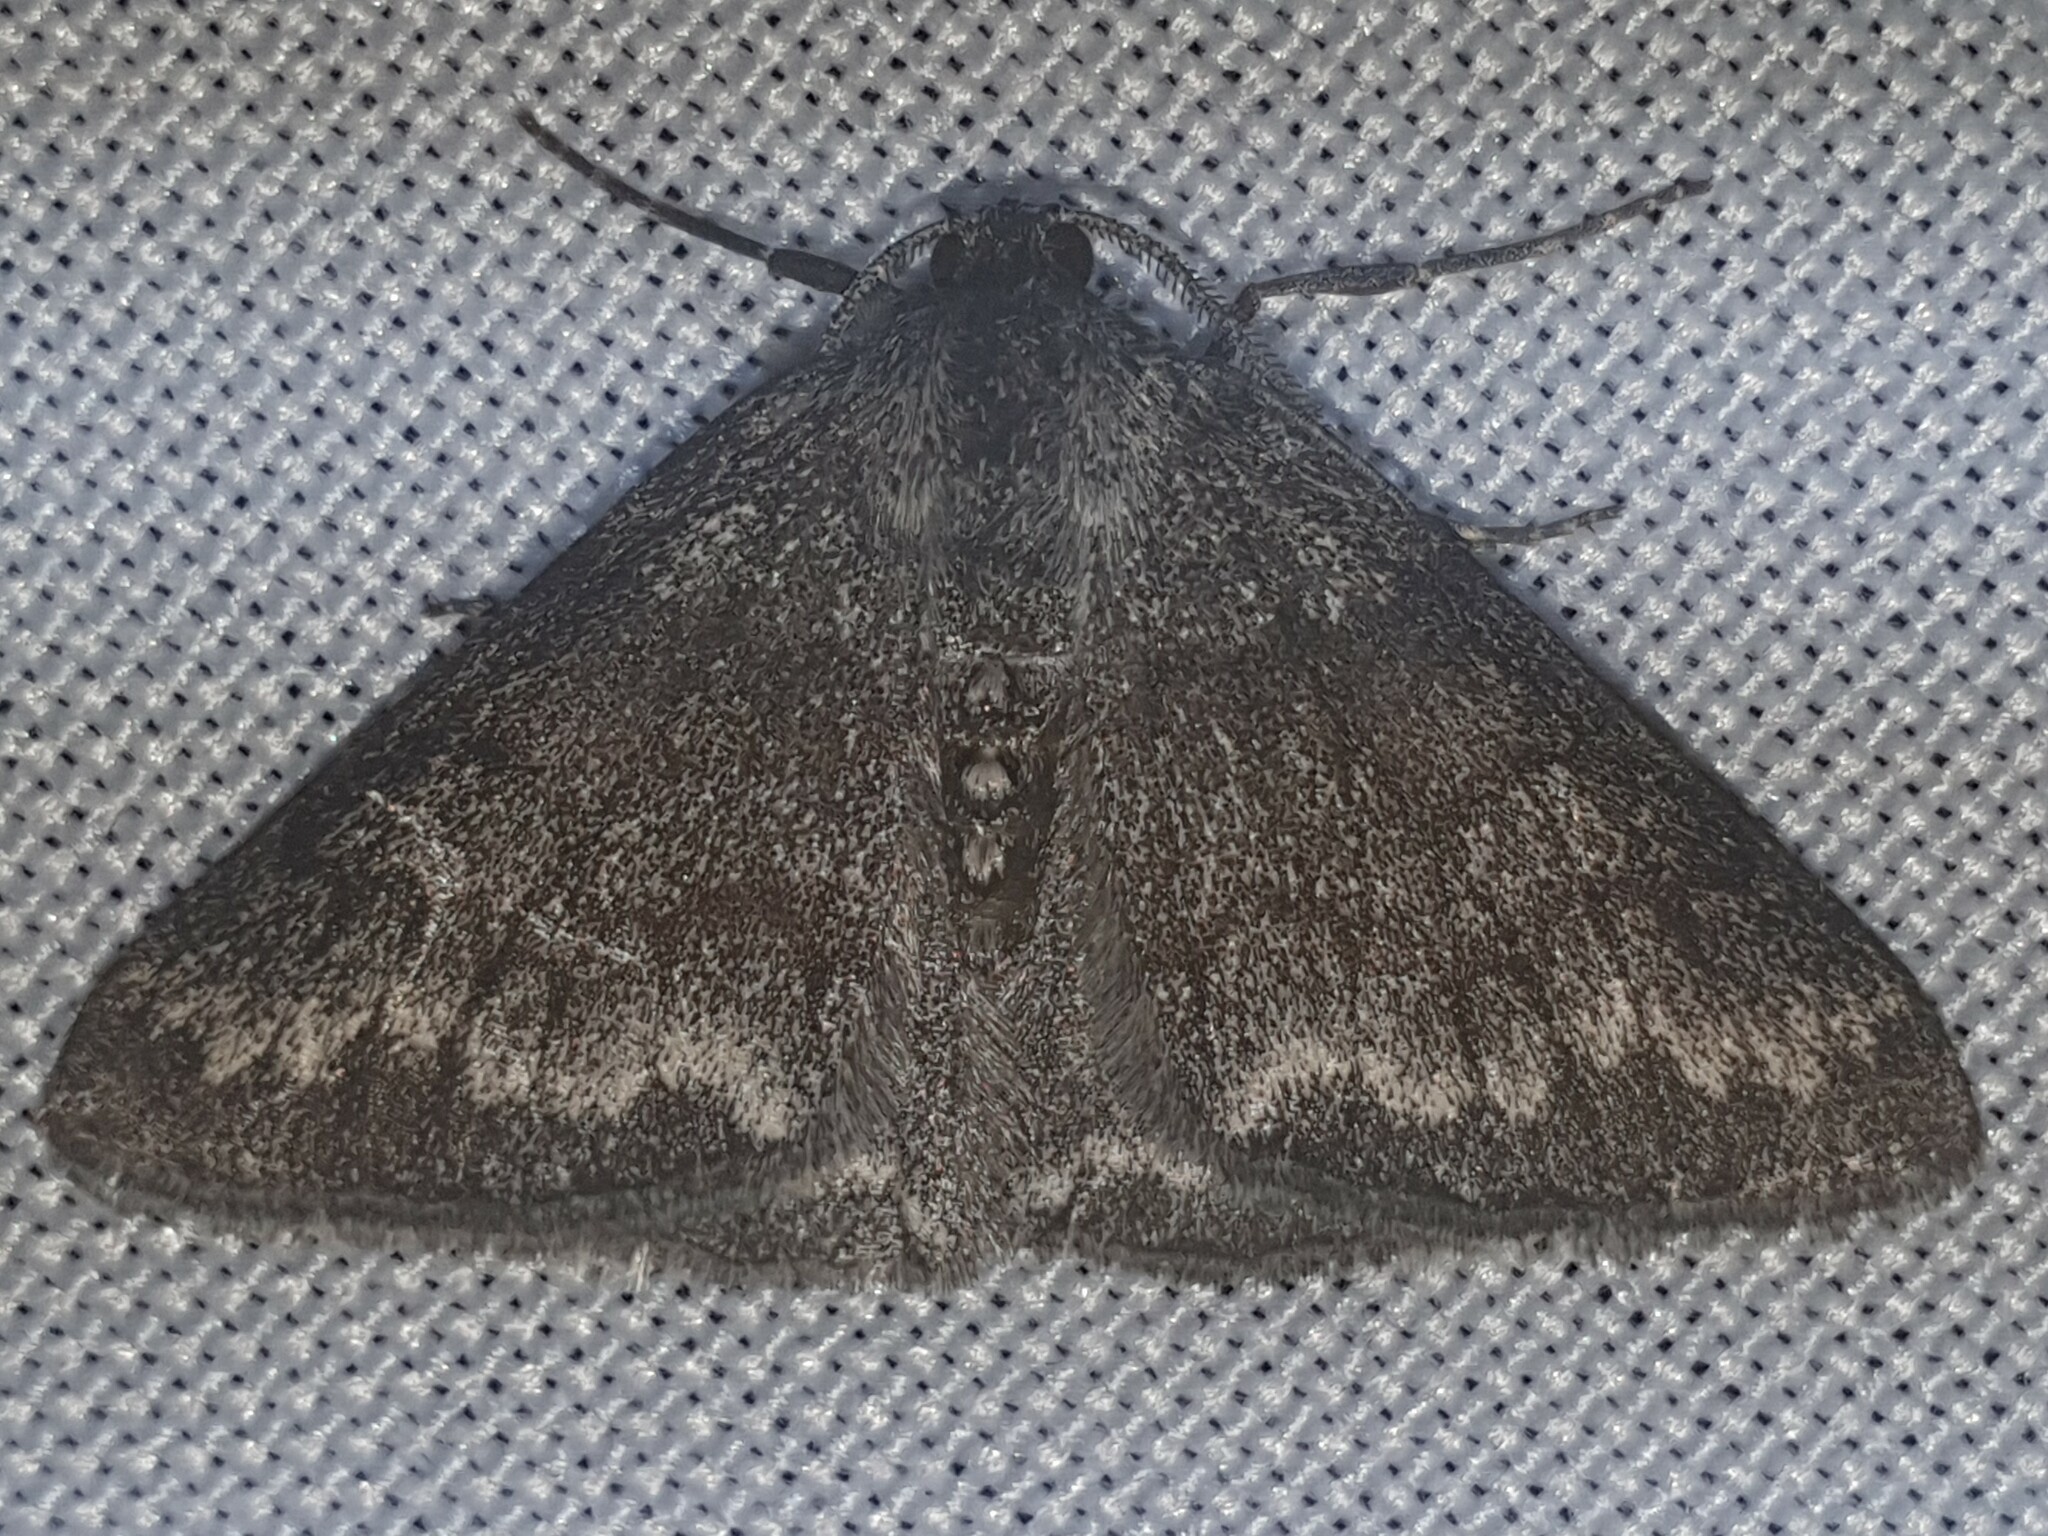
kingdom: Animalia
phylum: Arthropoda
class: Insecta
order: Lepidoptera
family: Geometridae
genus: Pseudoterpna
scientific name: Pseudoterpna coronillaria
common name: Jersey emerald
